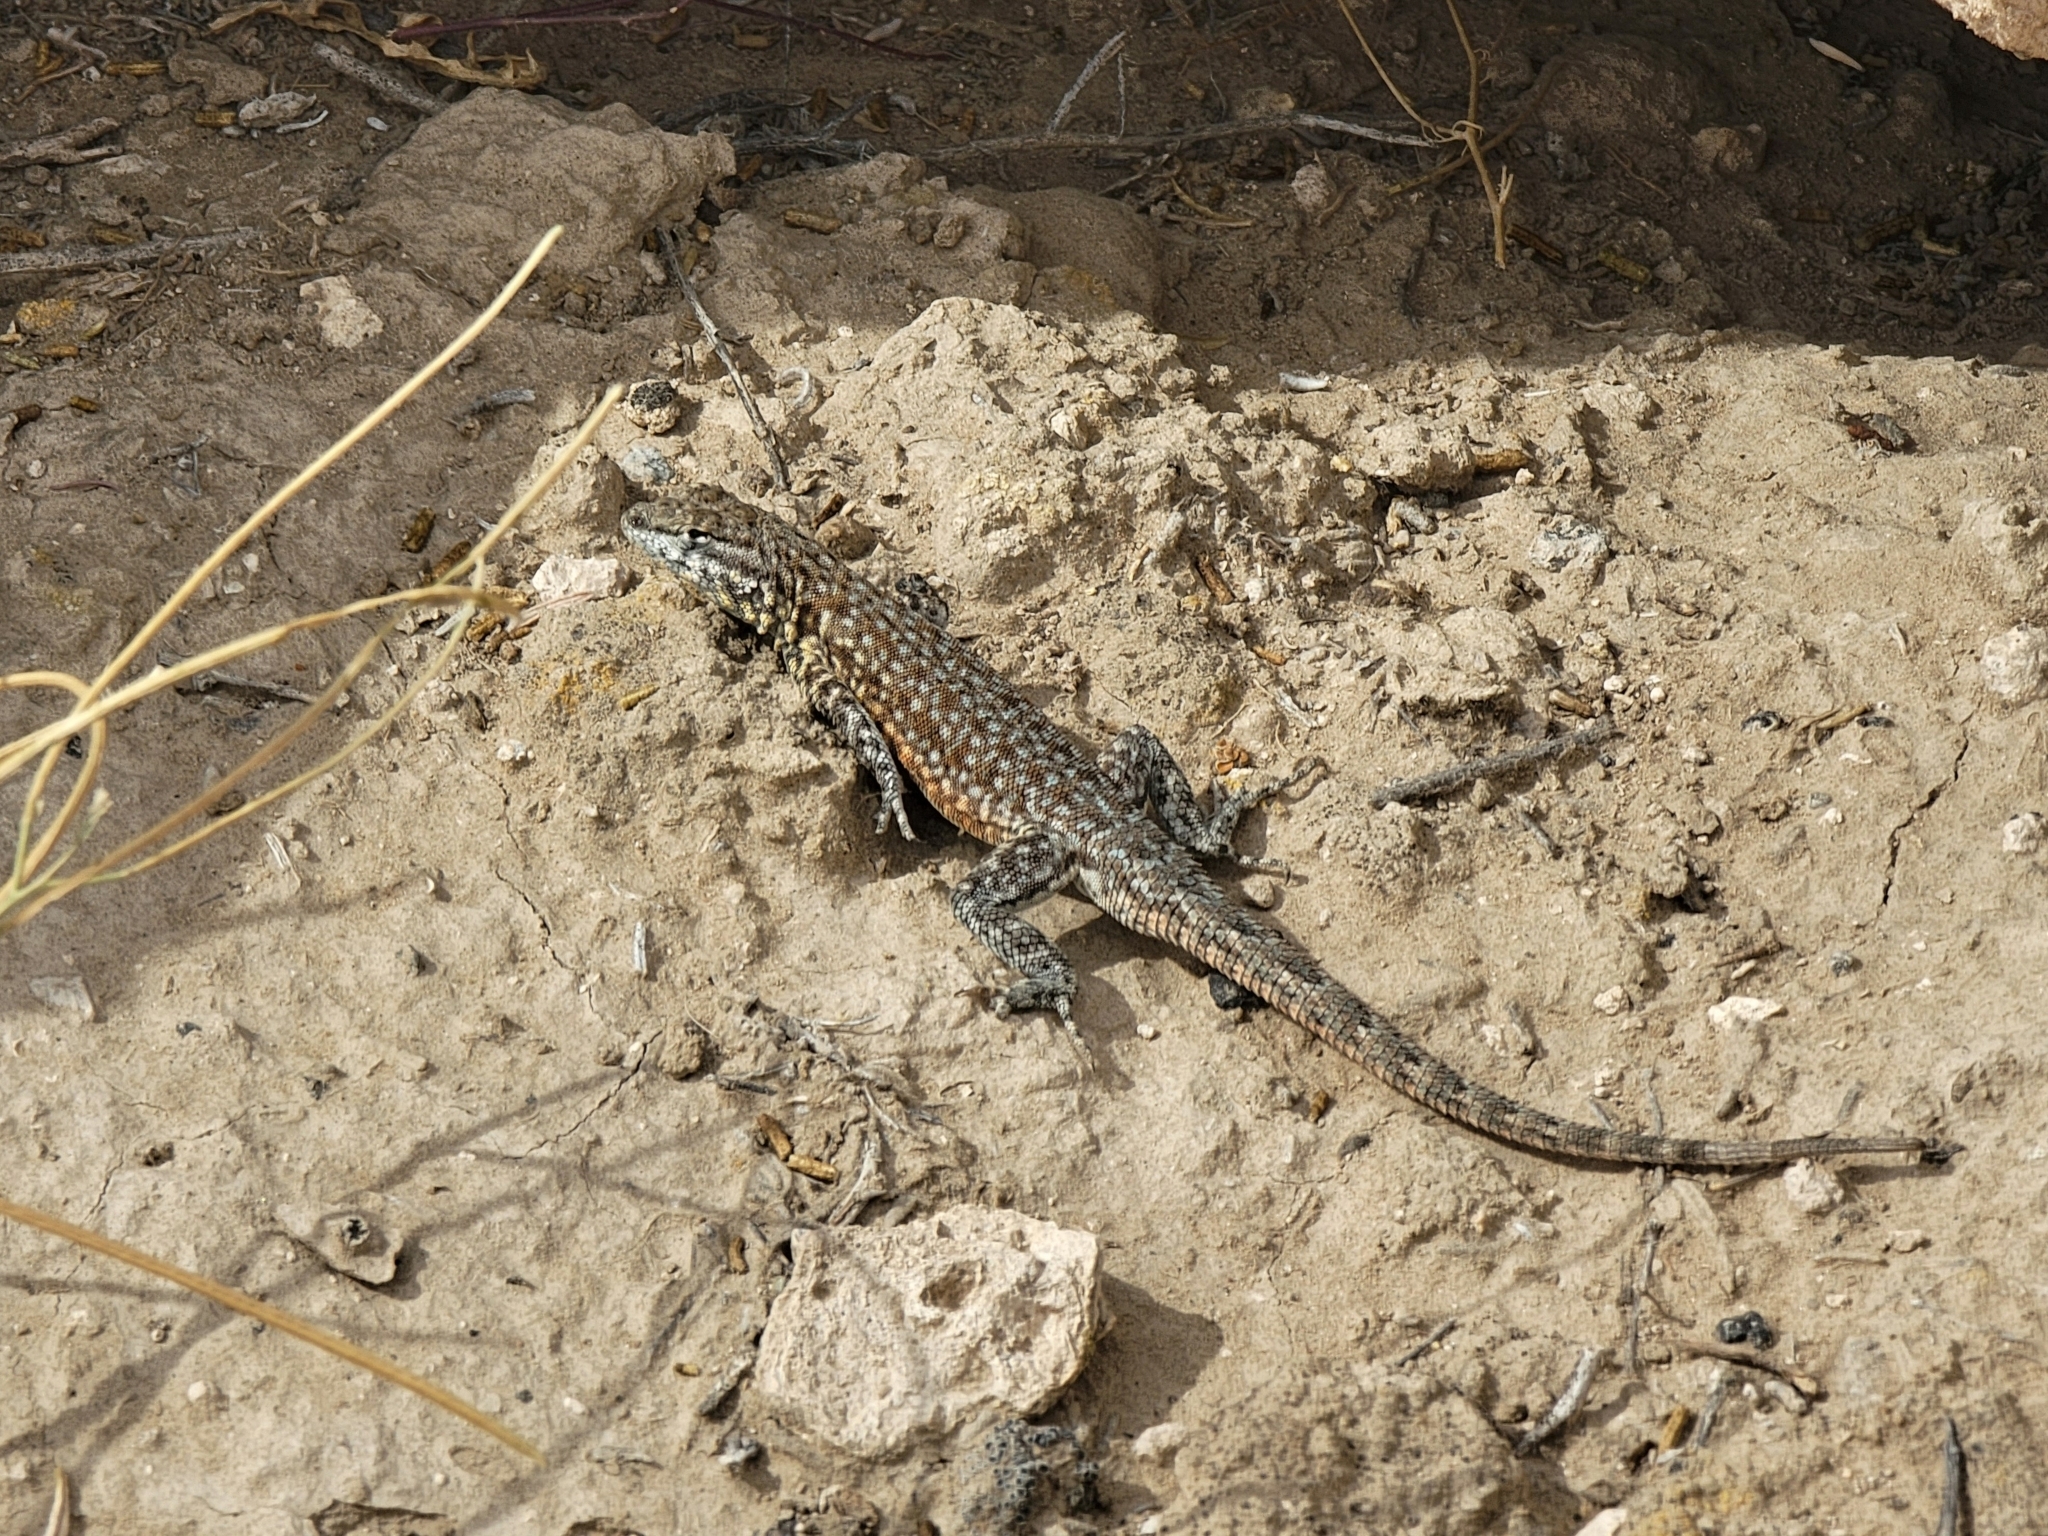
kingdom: Animalia
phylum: Chordata
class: Squamata
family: Phrynosomatidae
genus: Uta
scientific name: Uta stansburiana
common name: Side-blotched lizard
